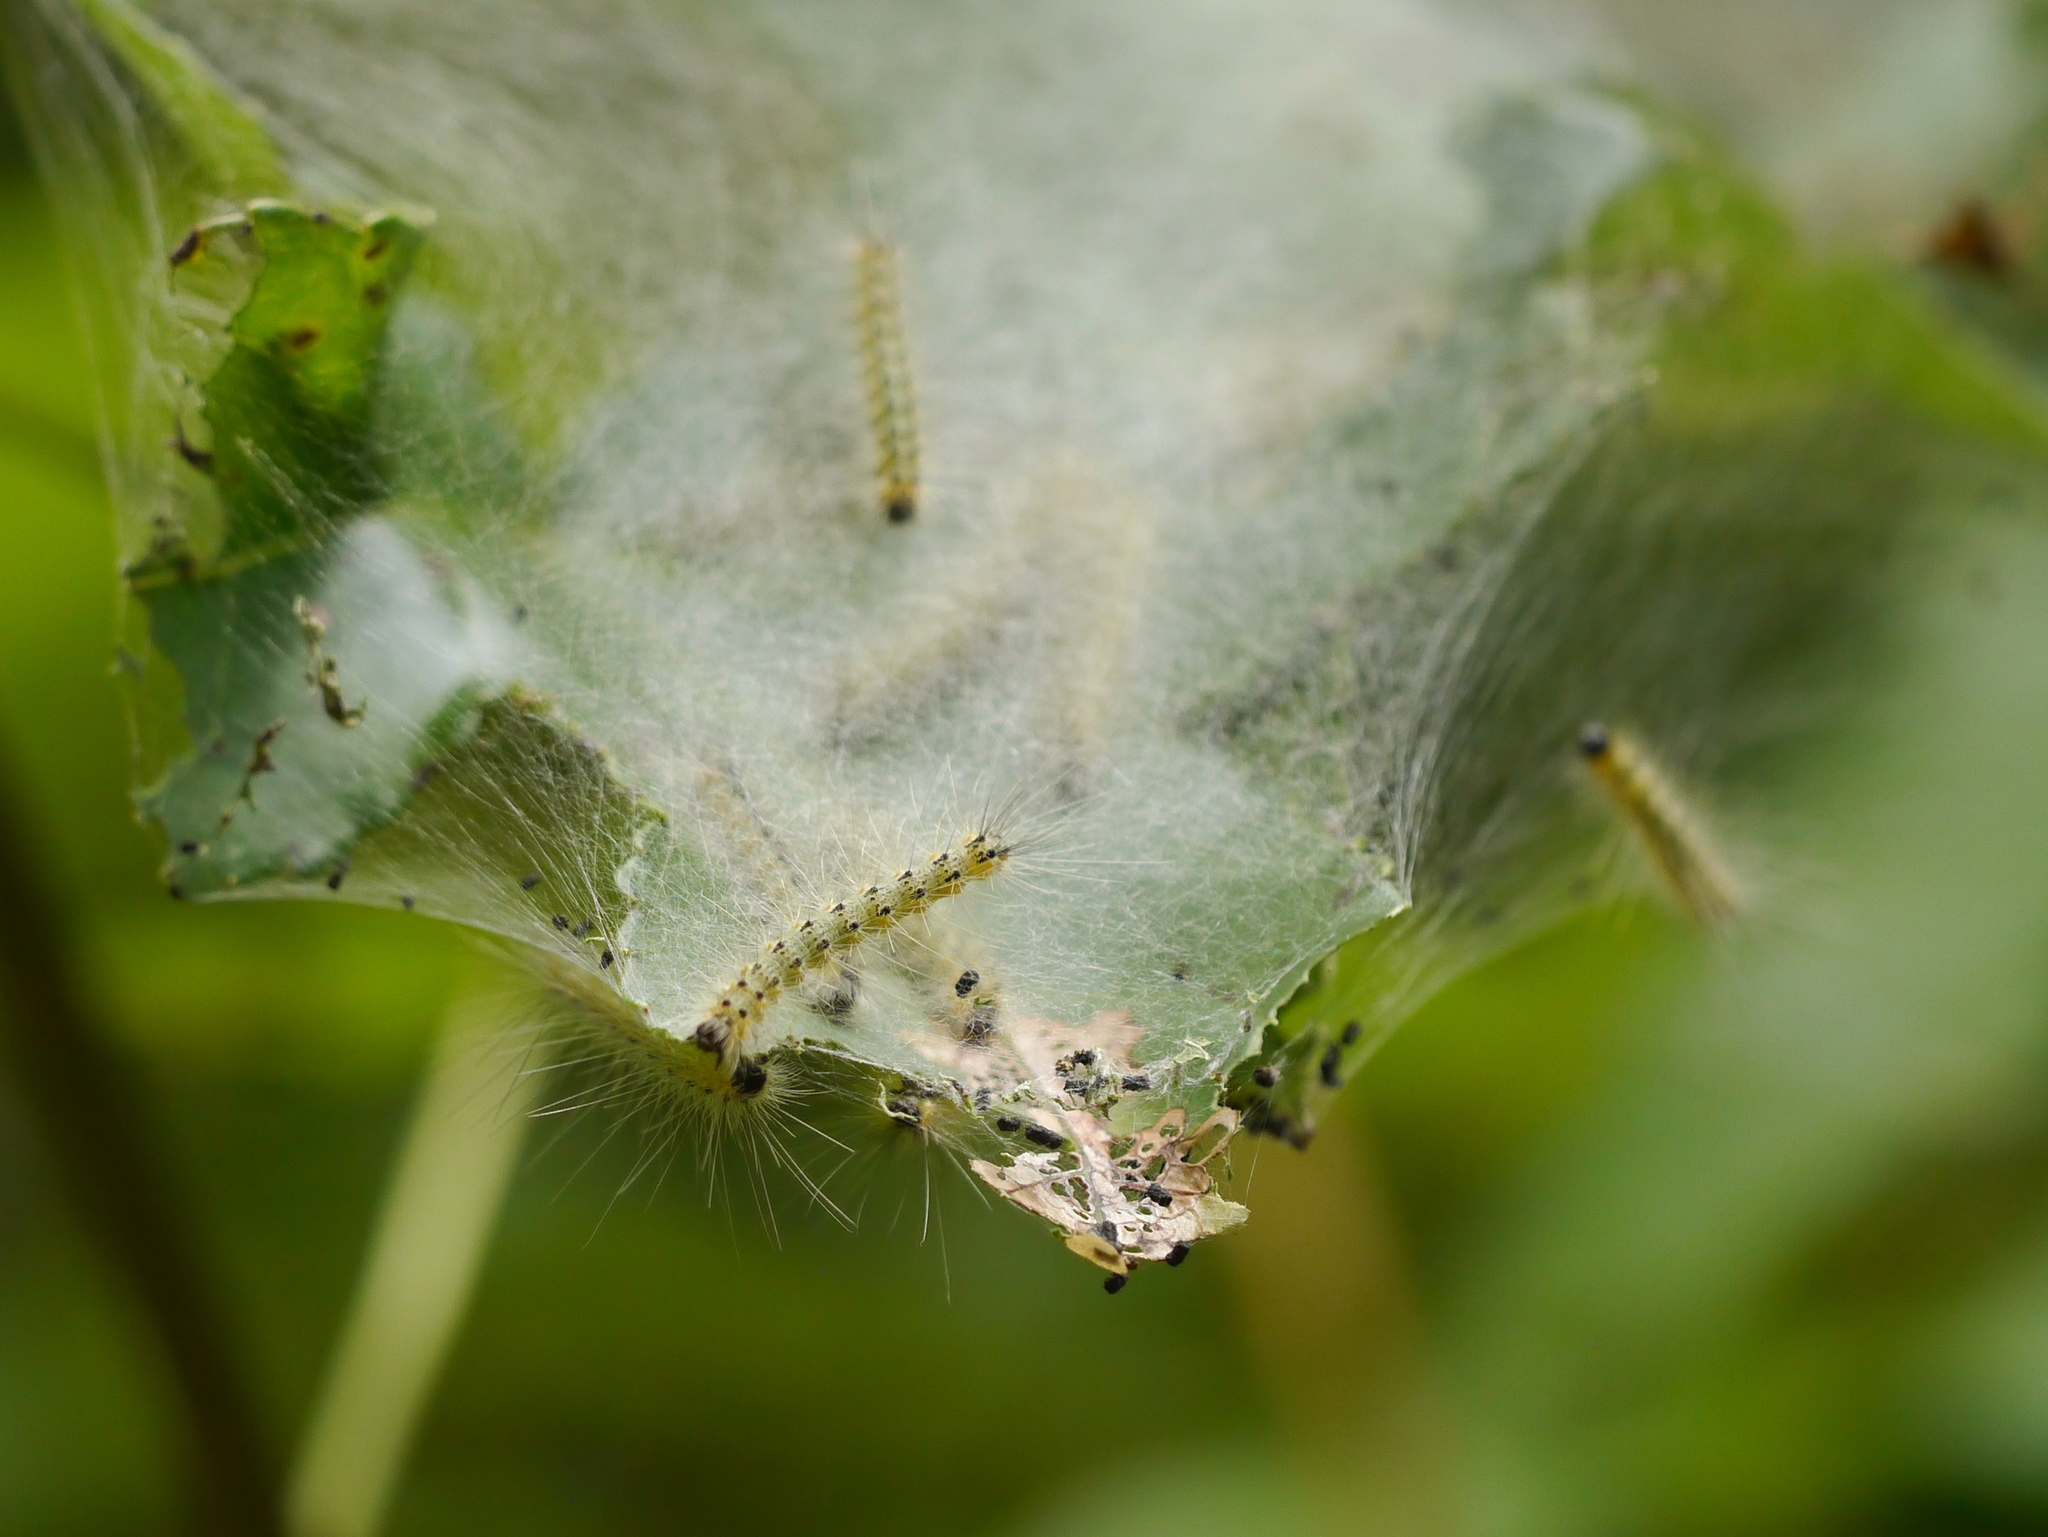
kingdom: Animalia
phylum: Arthropoda
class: Insecta
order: Lepidoptera
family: Erebidae
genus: Hyphantria
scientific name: Hyphantria cunea
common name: American white moth
